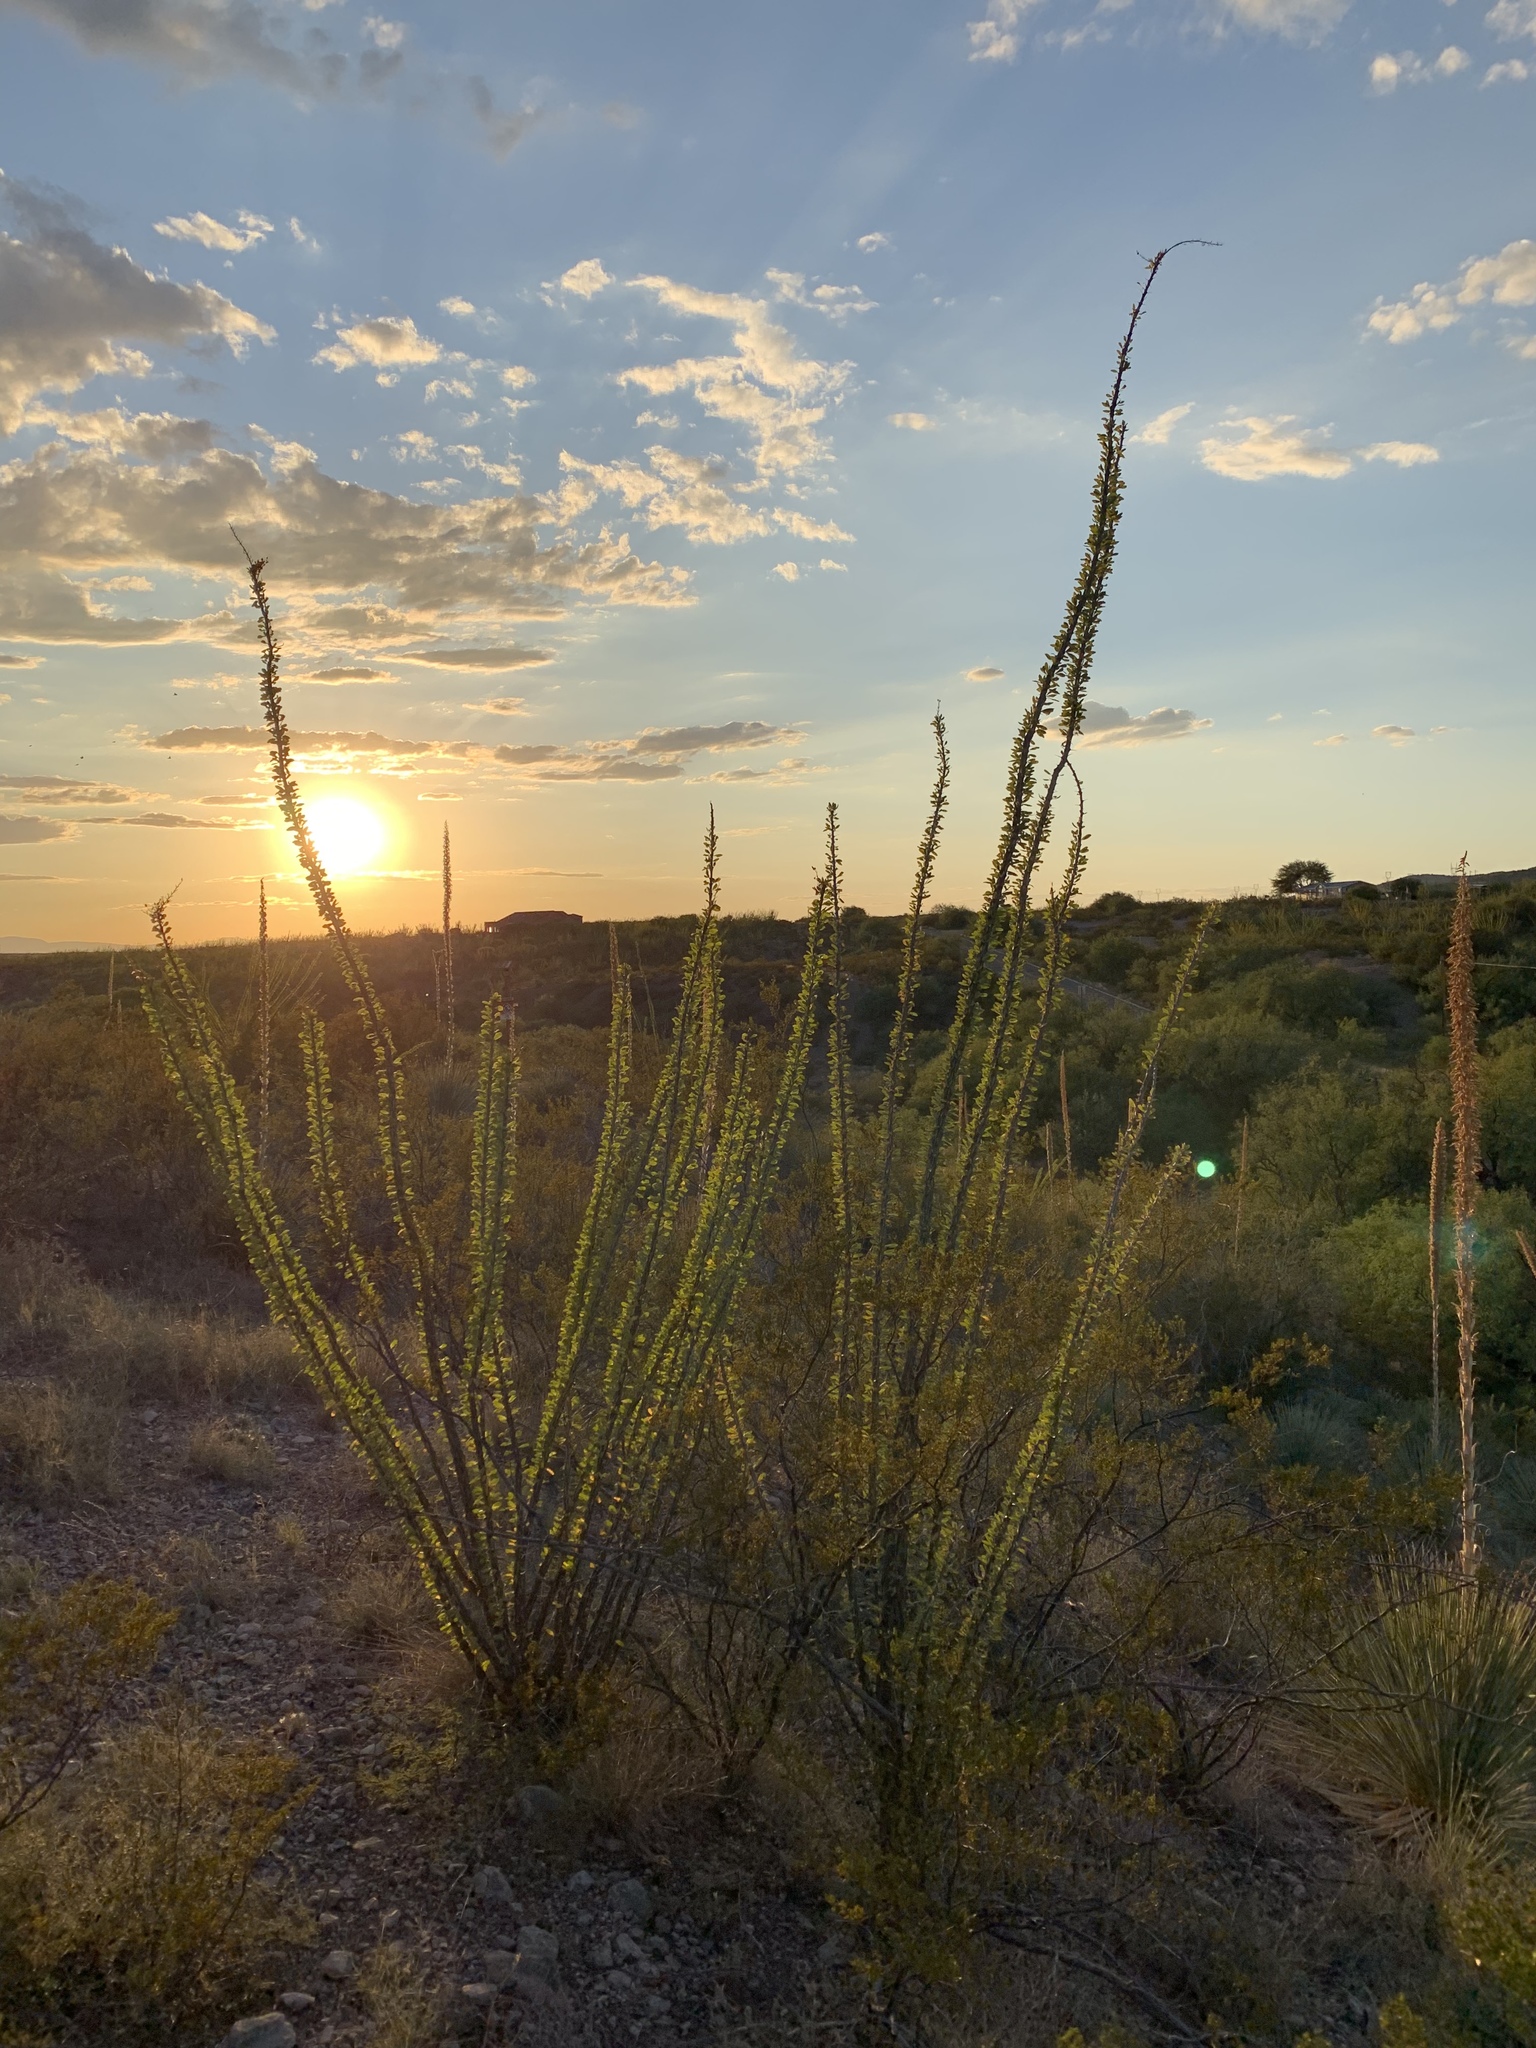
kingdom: Plantae
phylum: Tracheophyta
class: Magnoliopsida
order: Ericales
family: Fouquieriaceae
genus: Fouquieria
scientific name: Fouquieria splendens
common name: Vine-cactus
